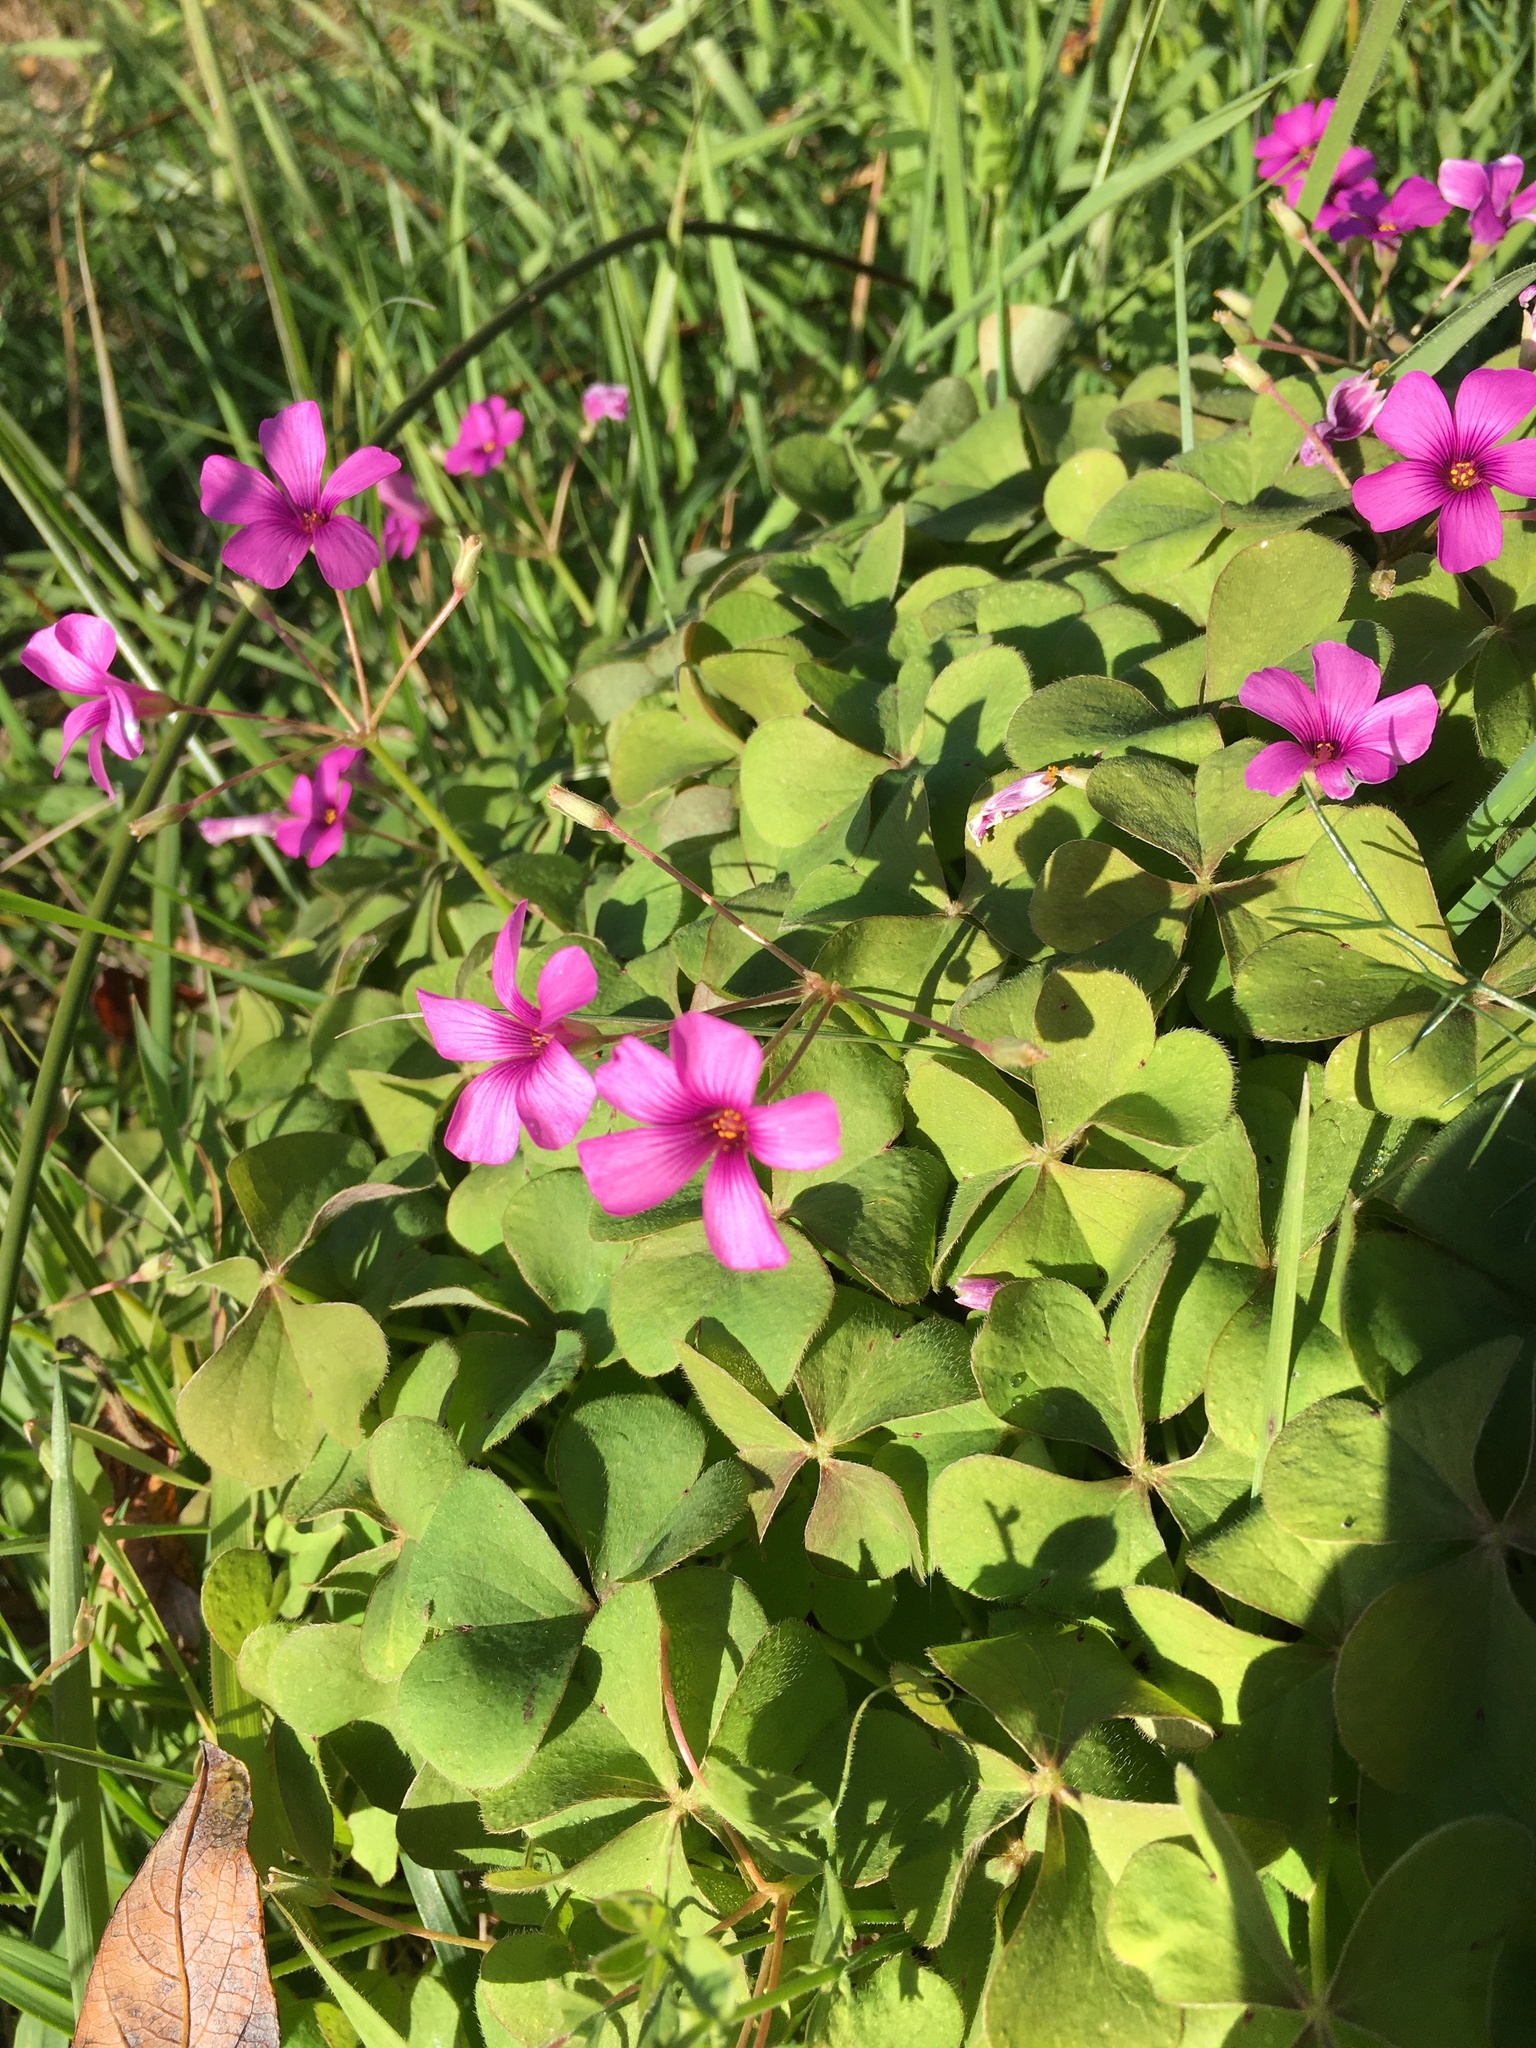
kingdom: Plantae
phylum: Tracheophyta
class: Magnoliopsida
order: Oxalidales
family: Oxalidaceae
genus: Oxalis
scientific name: Oxalis articulata
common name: Pink-sorrel
